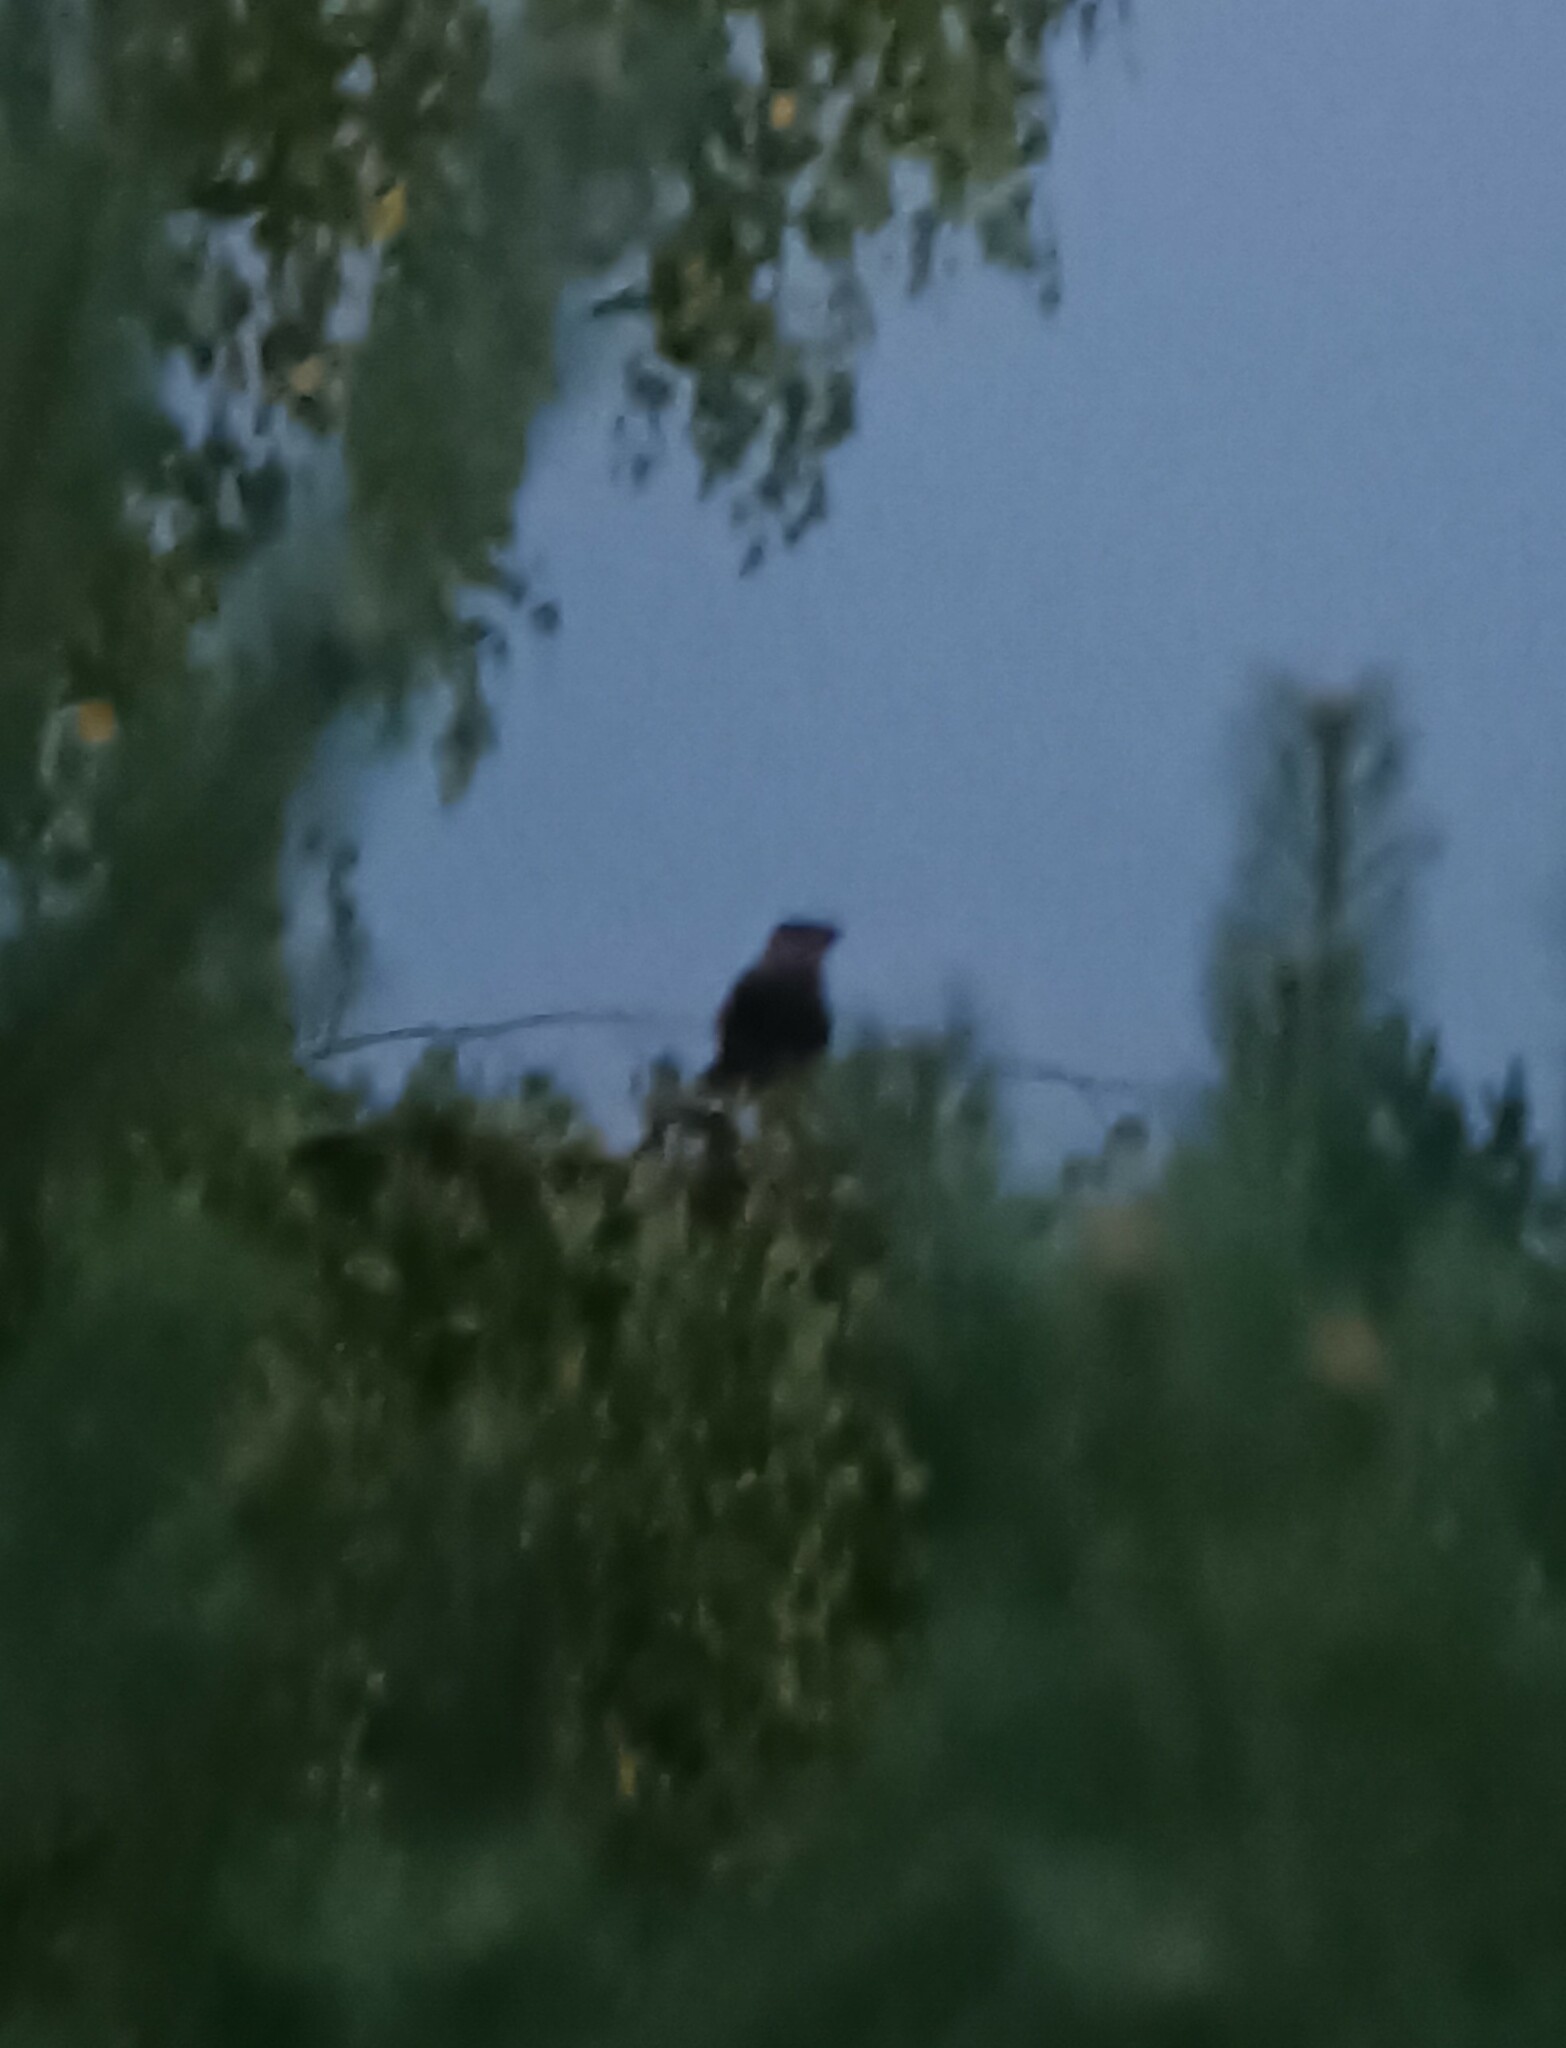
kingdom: Animalia
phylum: Chordata
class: Aves
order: Caprimulgiformes
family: Caprimulgidae
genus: Caprimulgus
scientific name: Caprimulgus europaeus
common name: European nightjar
